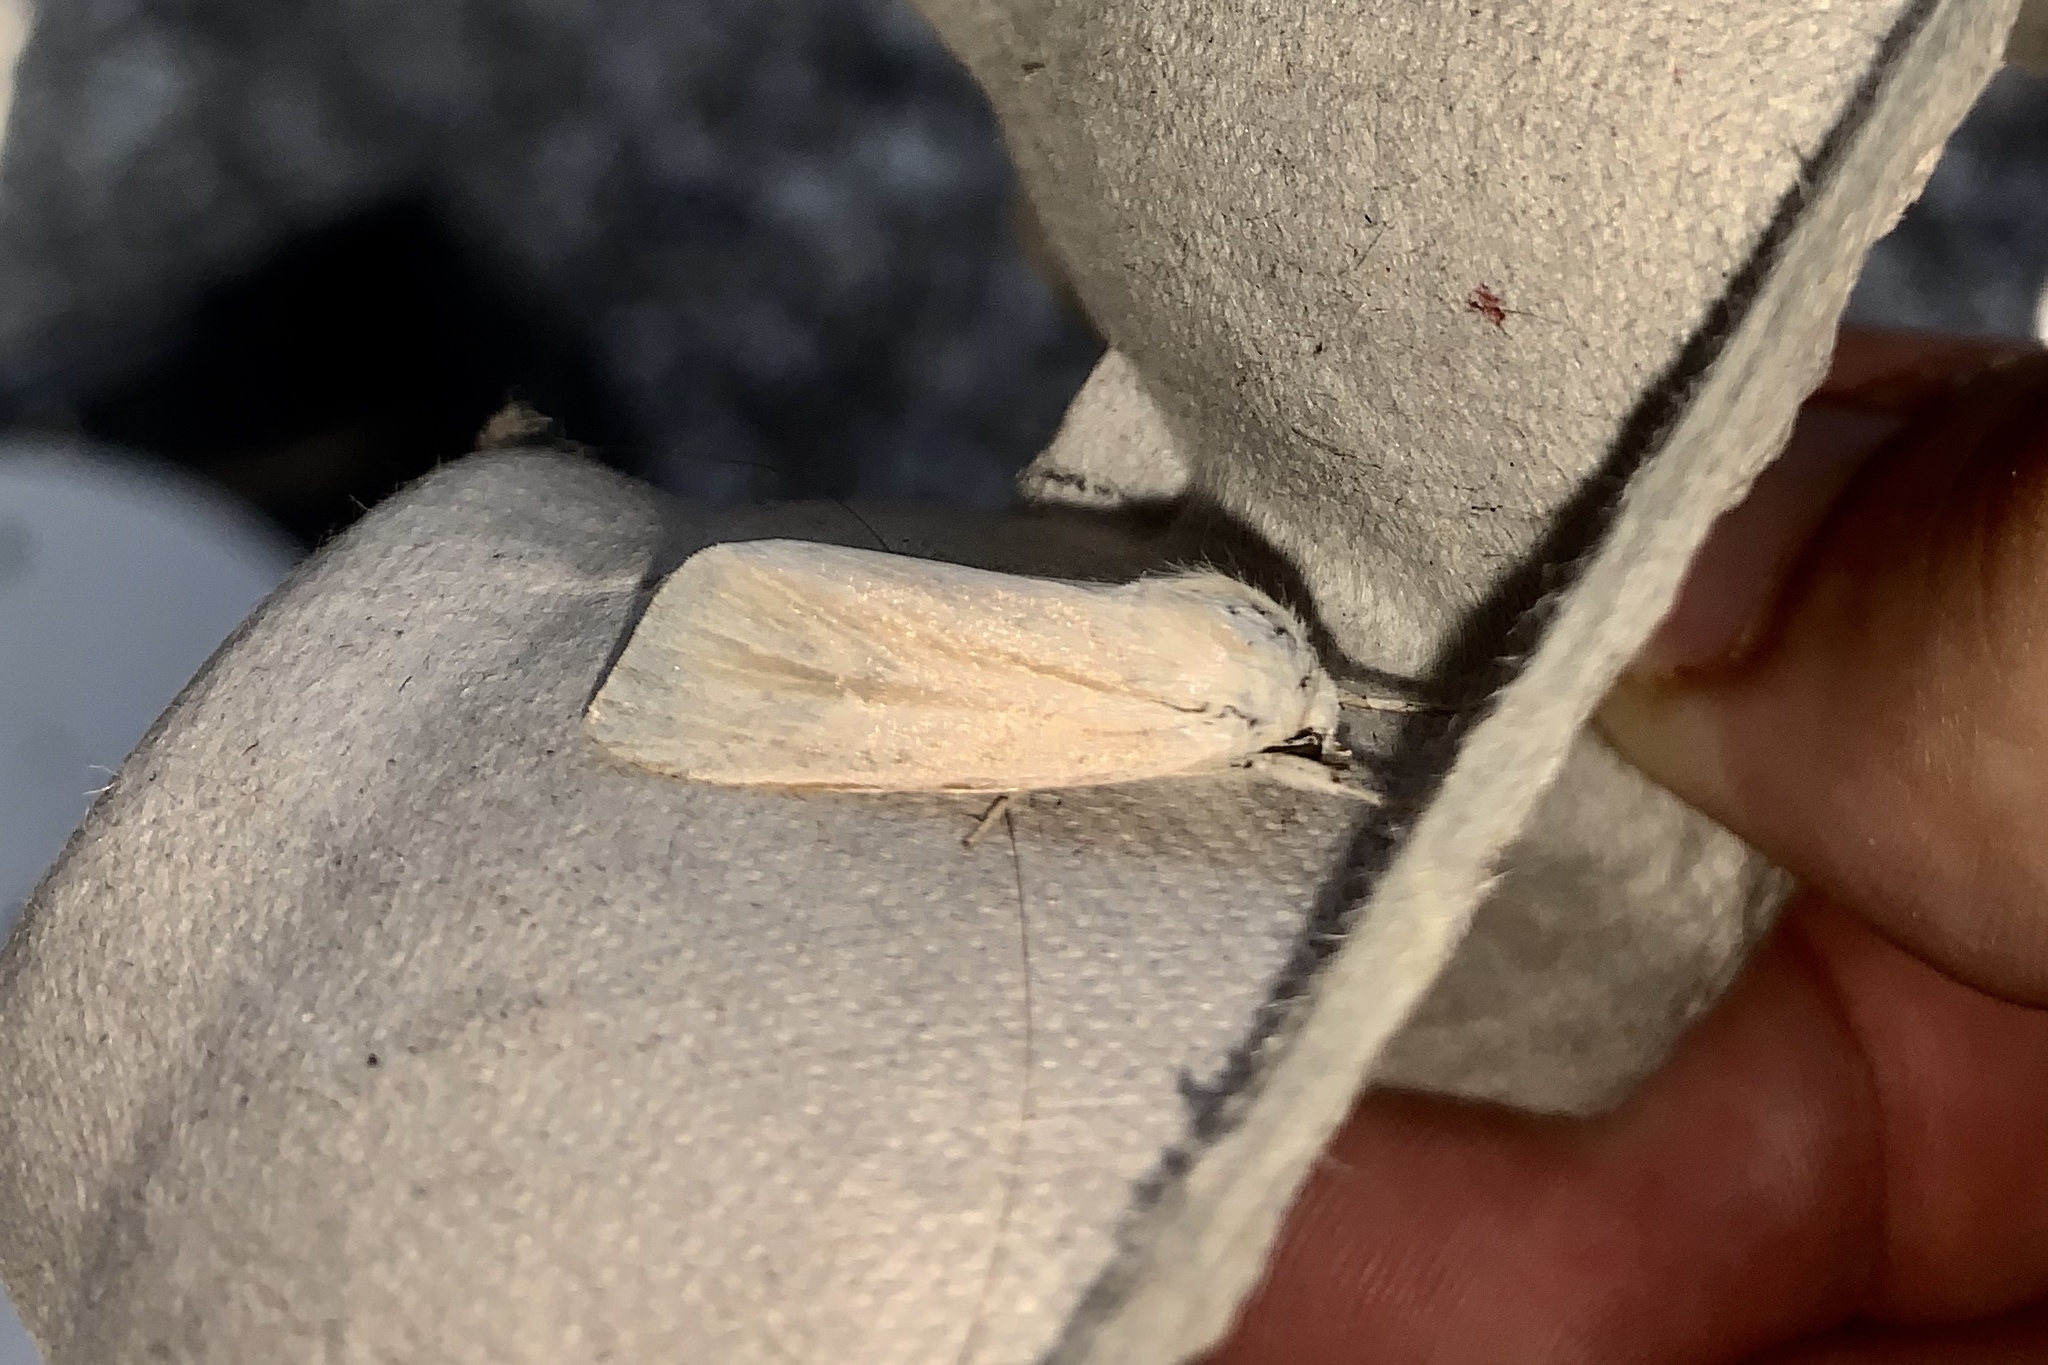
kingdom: Animalia
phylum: Arthropoda
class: Insecta
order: Lepidoptera
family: Noctuidae
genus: Acronicta
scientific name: Acronicta insularis
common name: Henry's marsh moth
